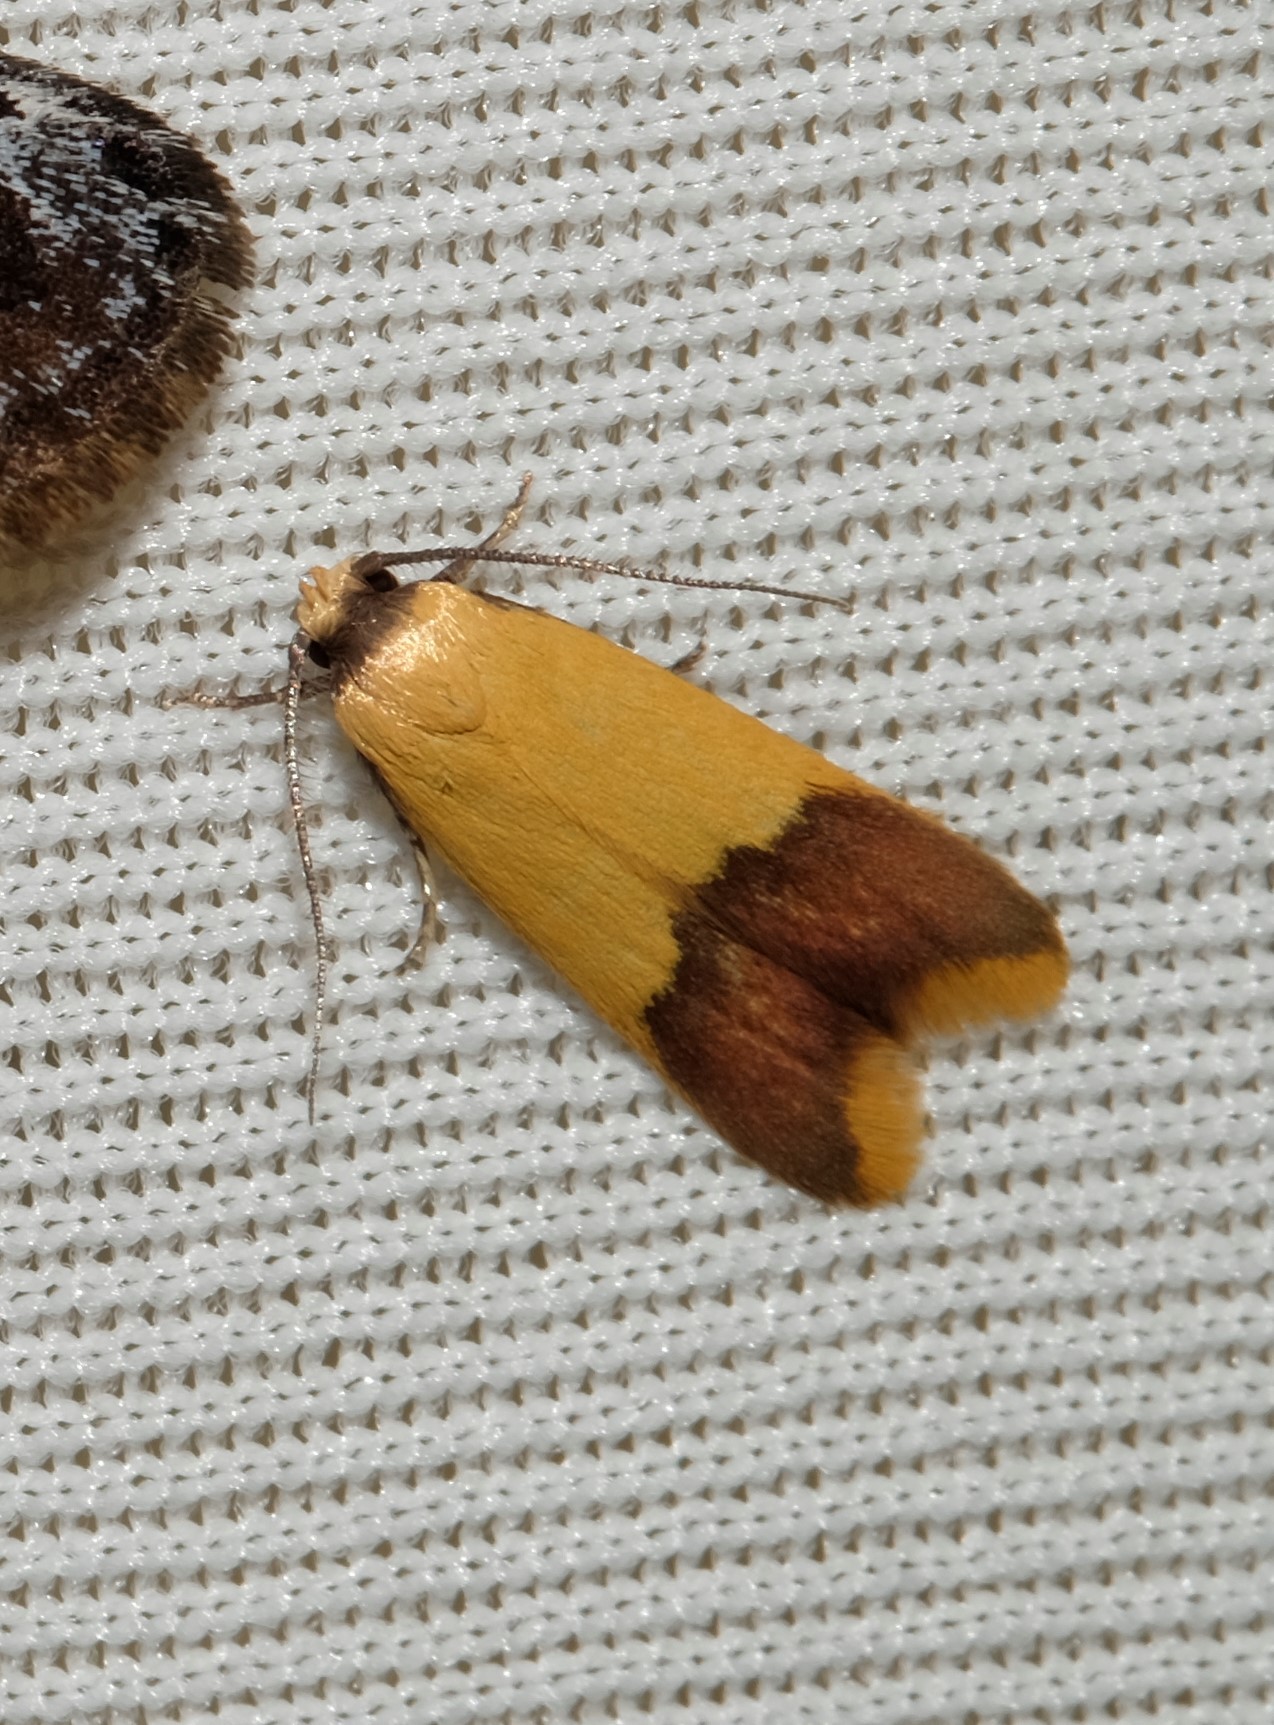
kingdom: Animalia
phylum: Arthropoda
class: Insecta
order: Lepidoptera
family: Oecophoridae
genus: Tachystola
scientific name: Tachystola thiasotis
